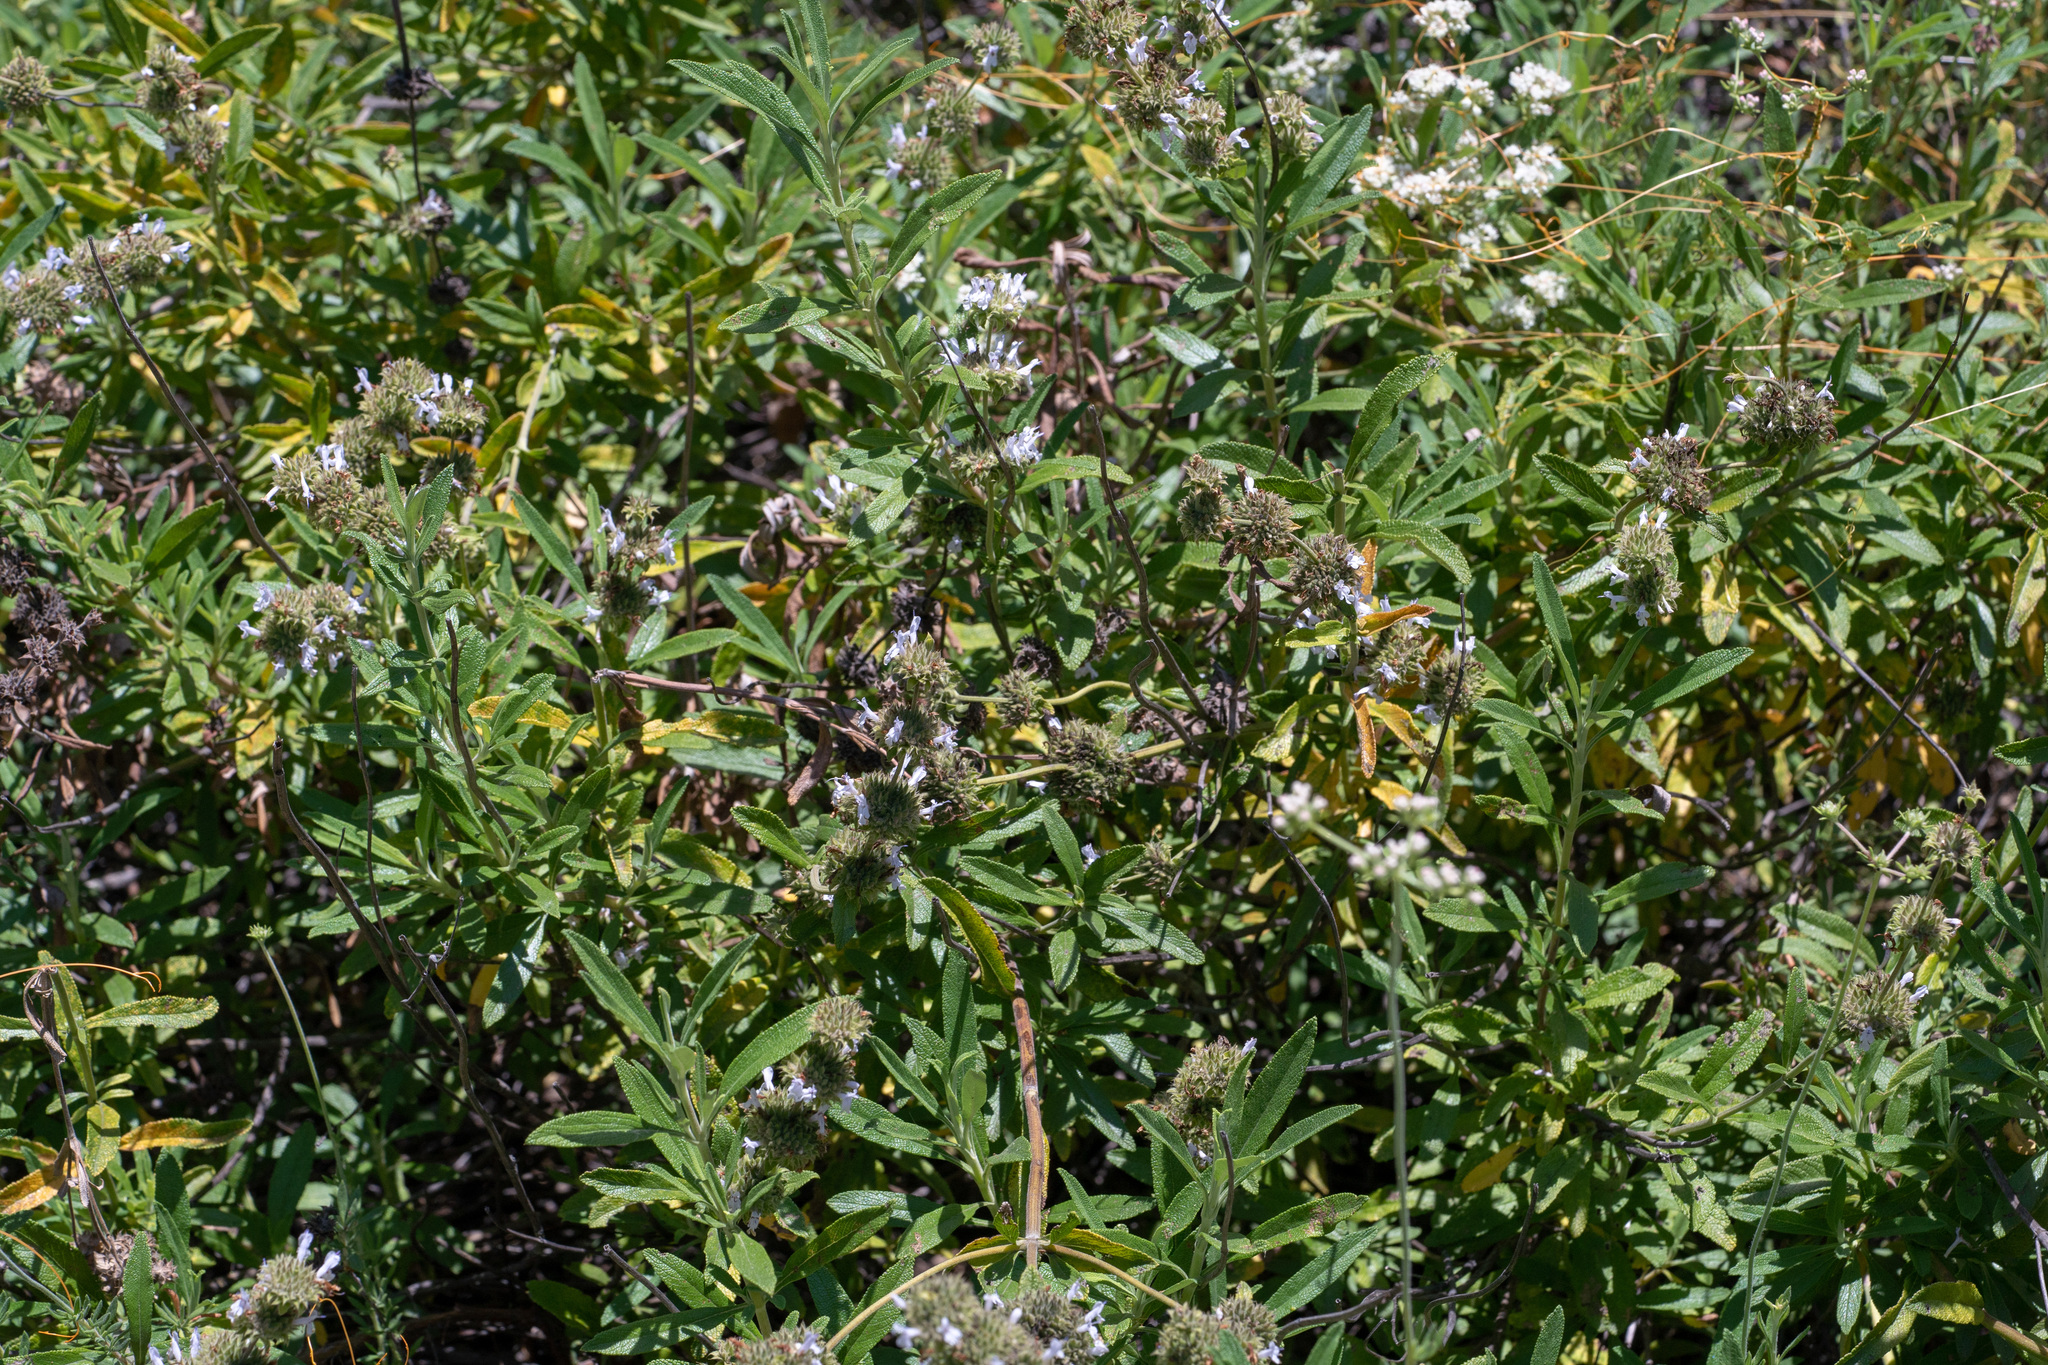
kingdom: Plantae
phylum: Tracheophyta
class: Magnoliopsida
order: Lamiales
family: Lamiaceae
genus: Salvia
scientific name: Salvia mellifera
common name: Black sage
